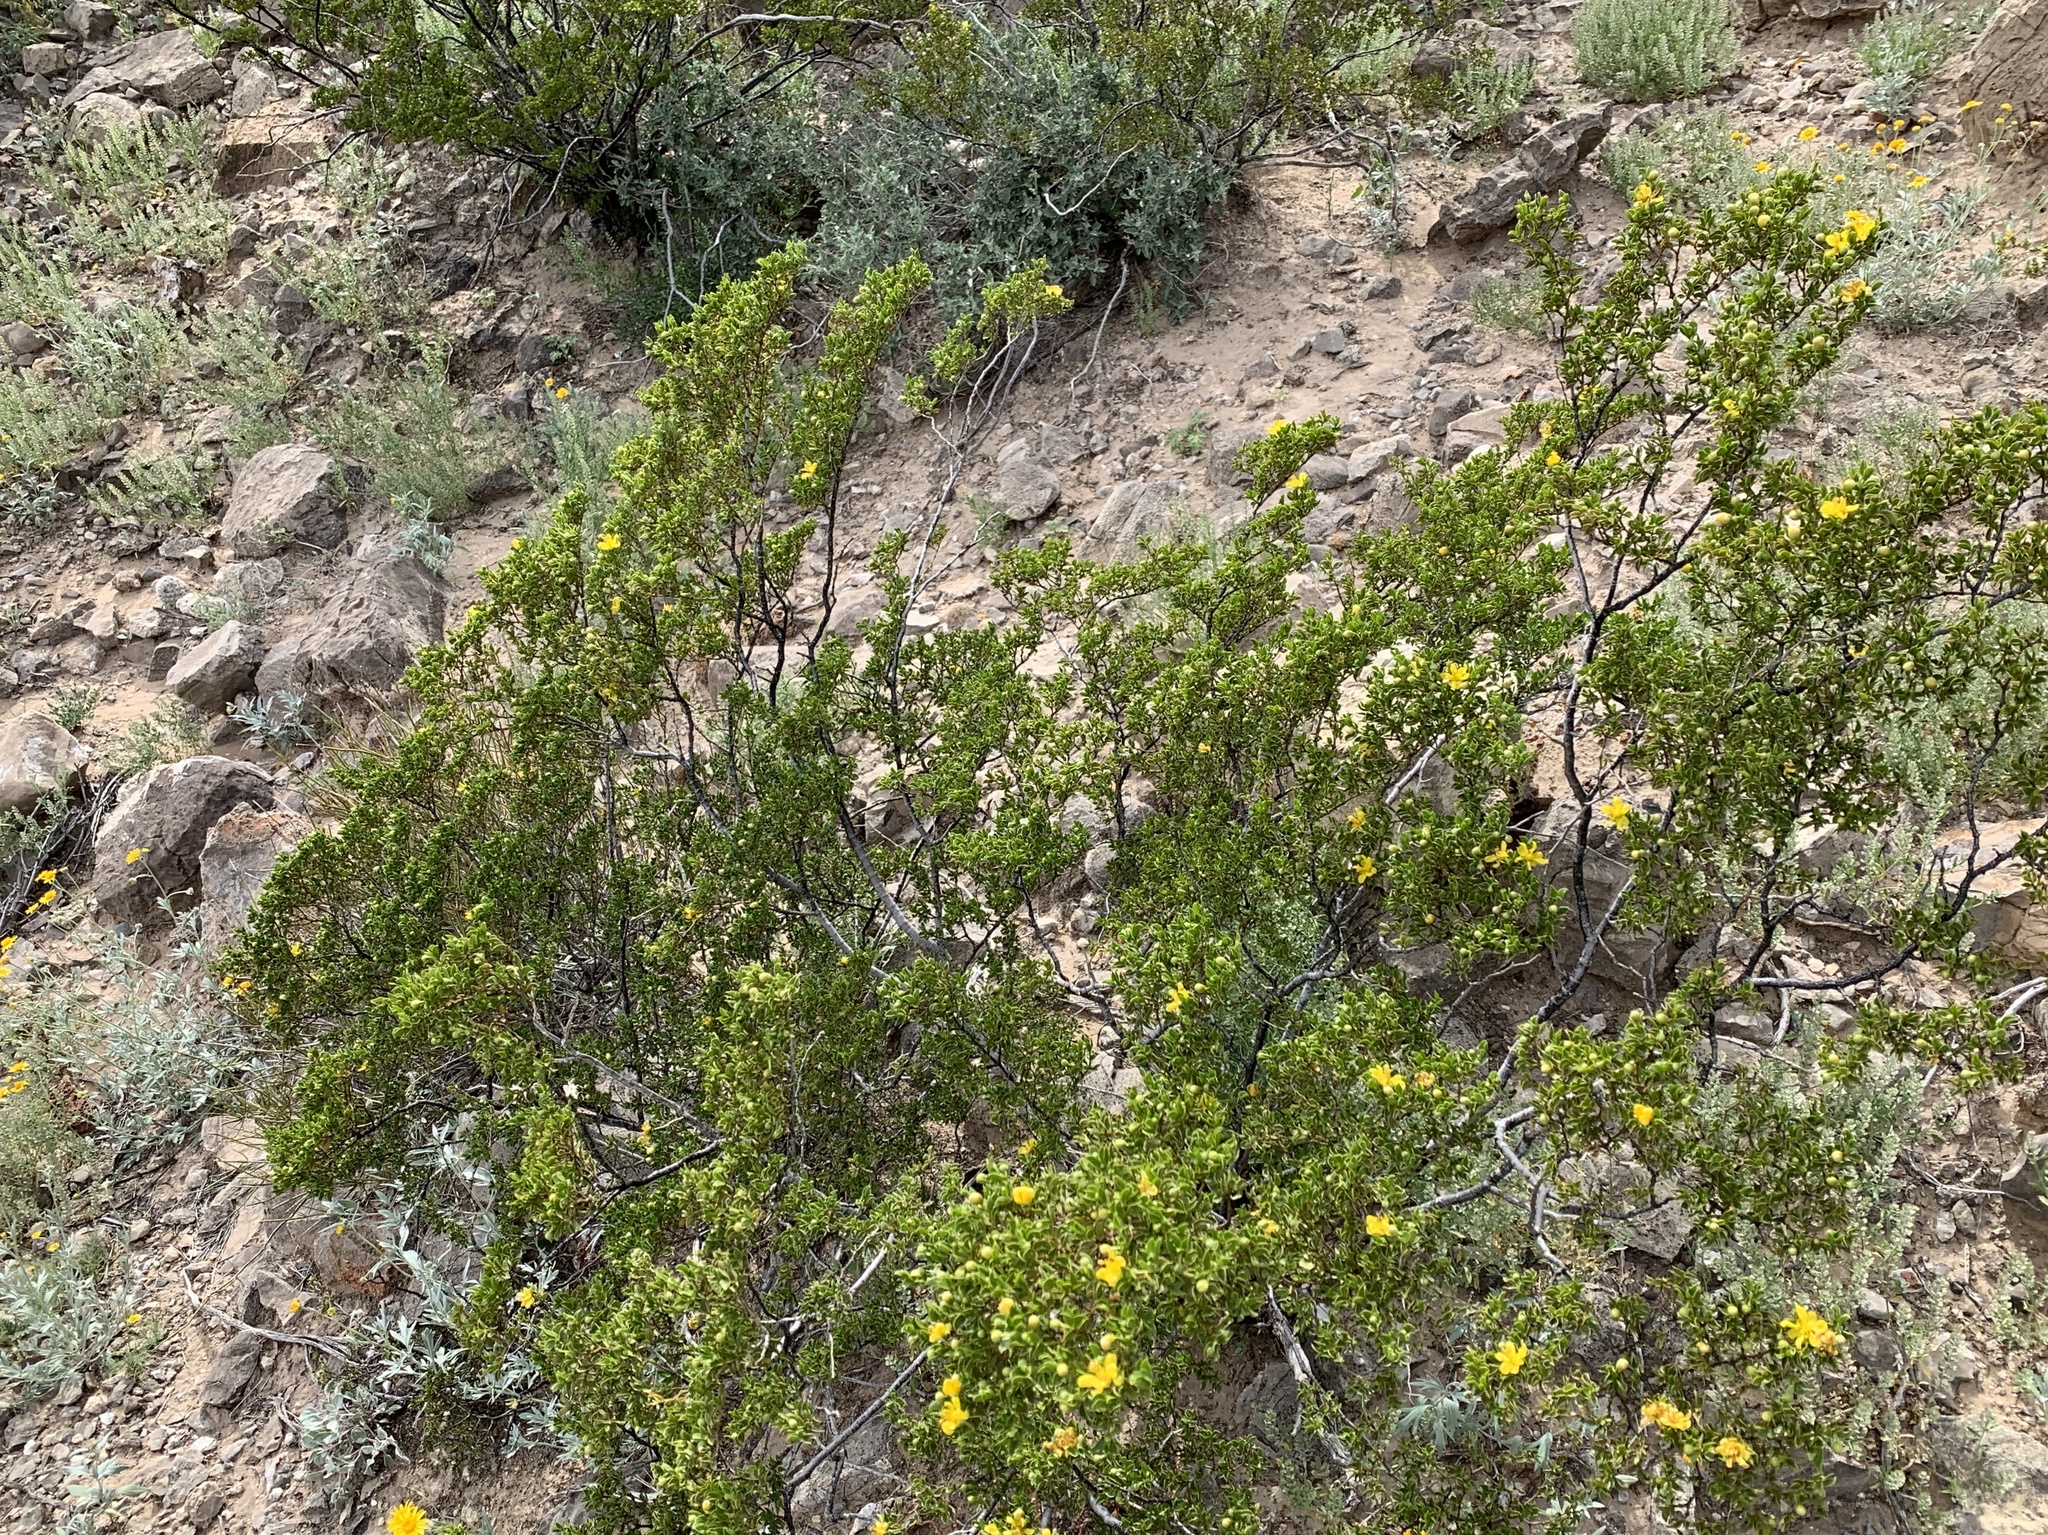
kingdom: Plantae
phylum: Tracheophyta
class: Magnoliopsida
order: Zygophyllales
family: Zygophyllaceae
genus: Larrea
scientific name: Larrea tridentata
